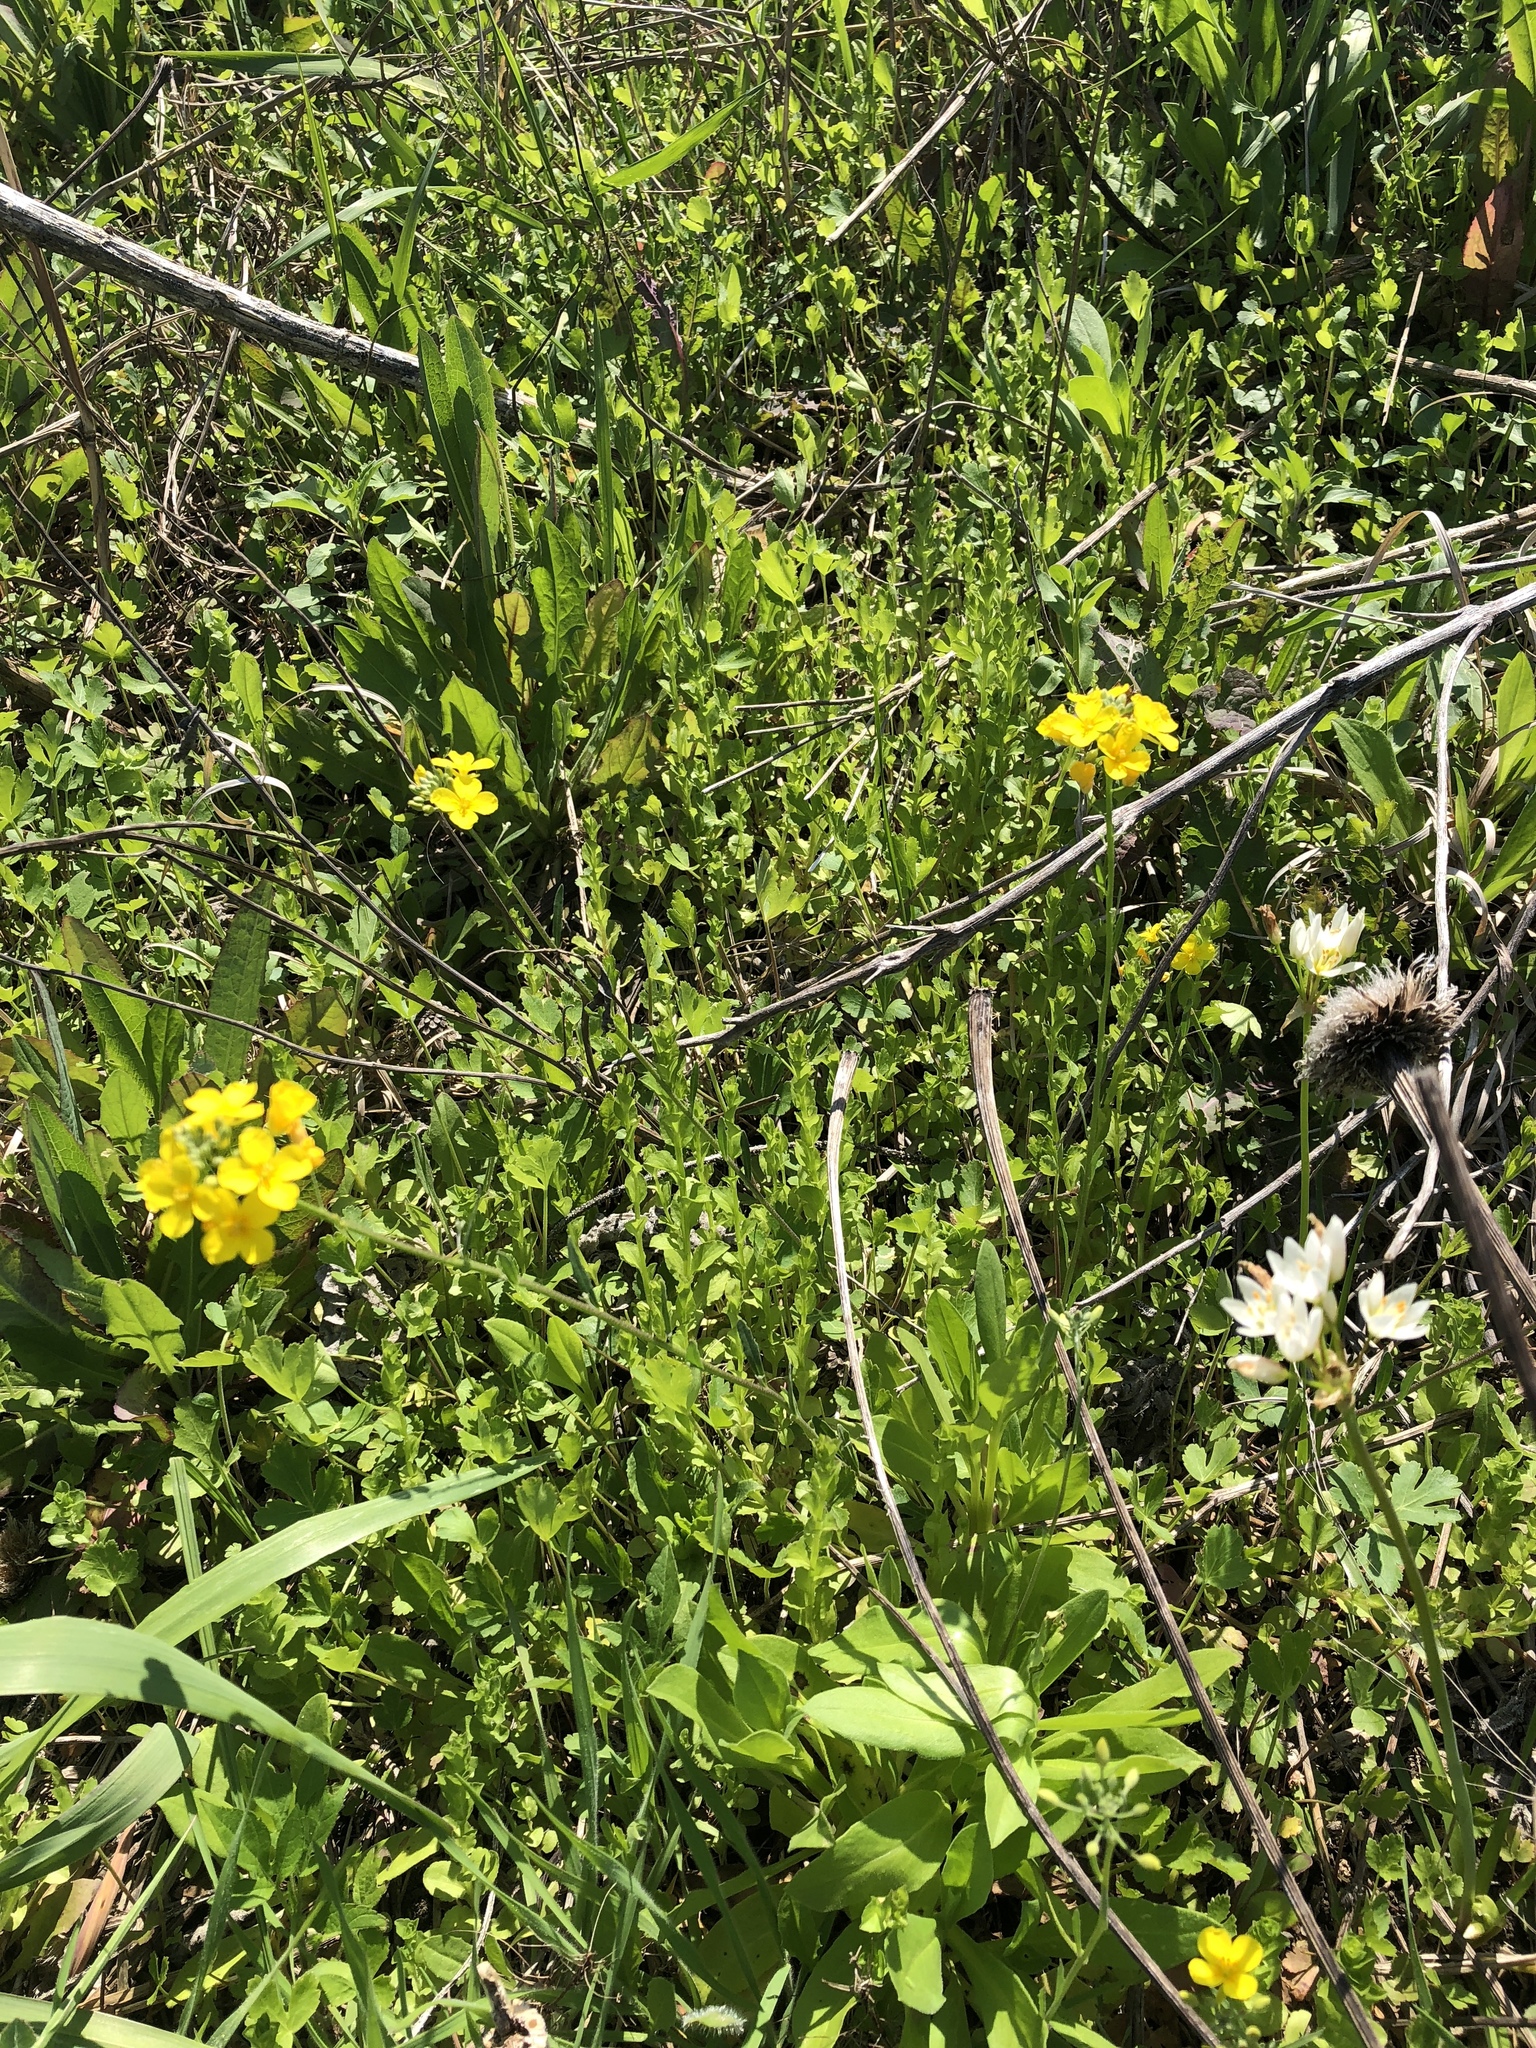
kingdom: Plantae
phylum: Tracheophyta
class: Magnoliopsida
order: Brassicales
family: Brassicaceae
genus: Physaria
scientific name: Physaria gracilis
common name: Spreading bladderpod
